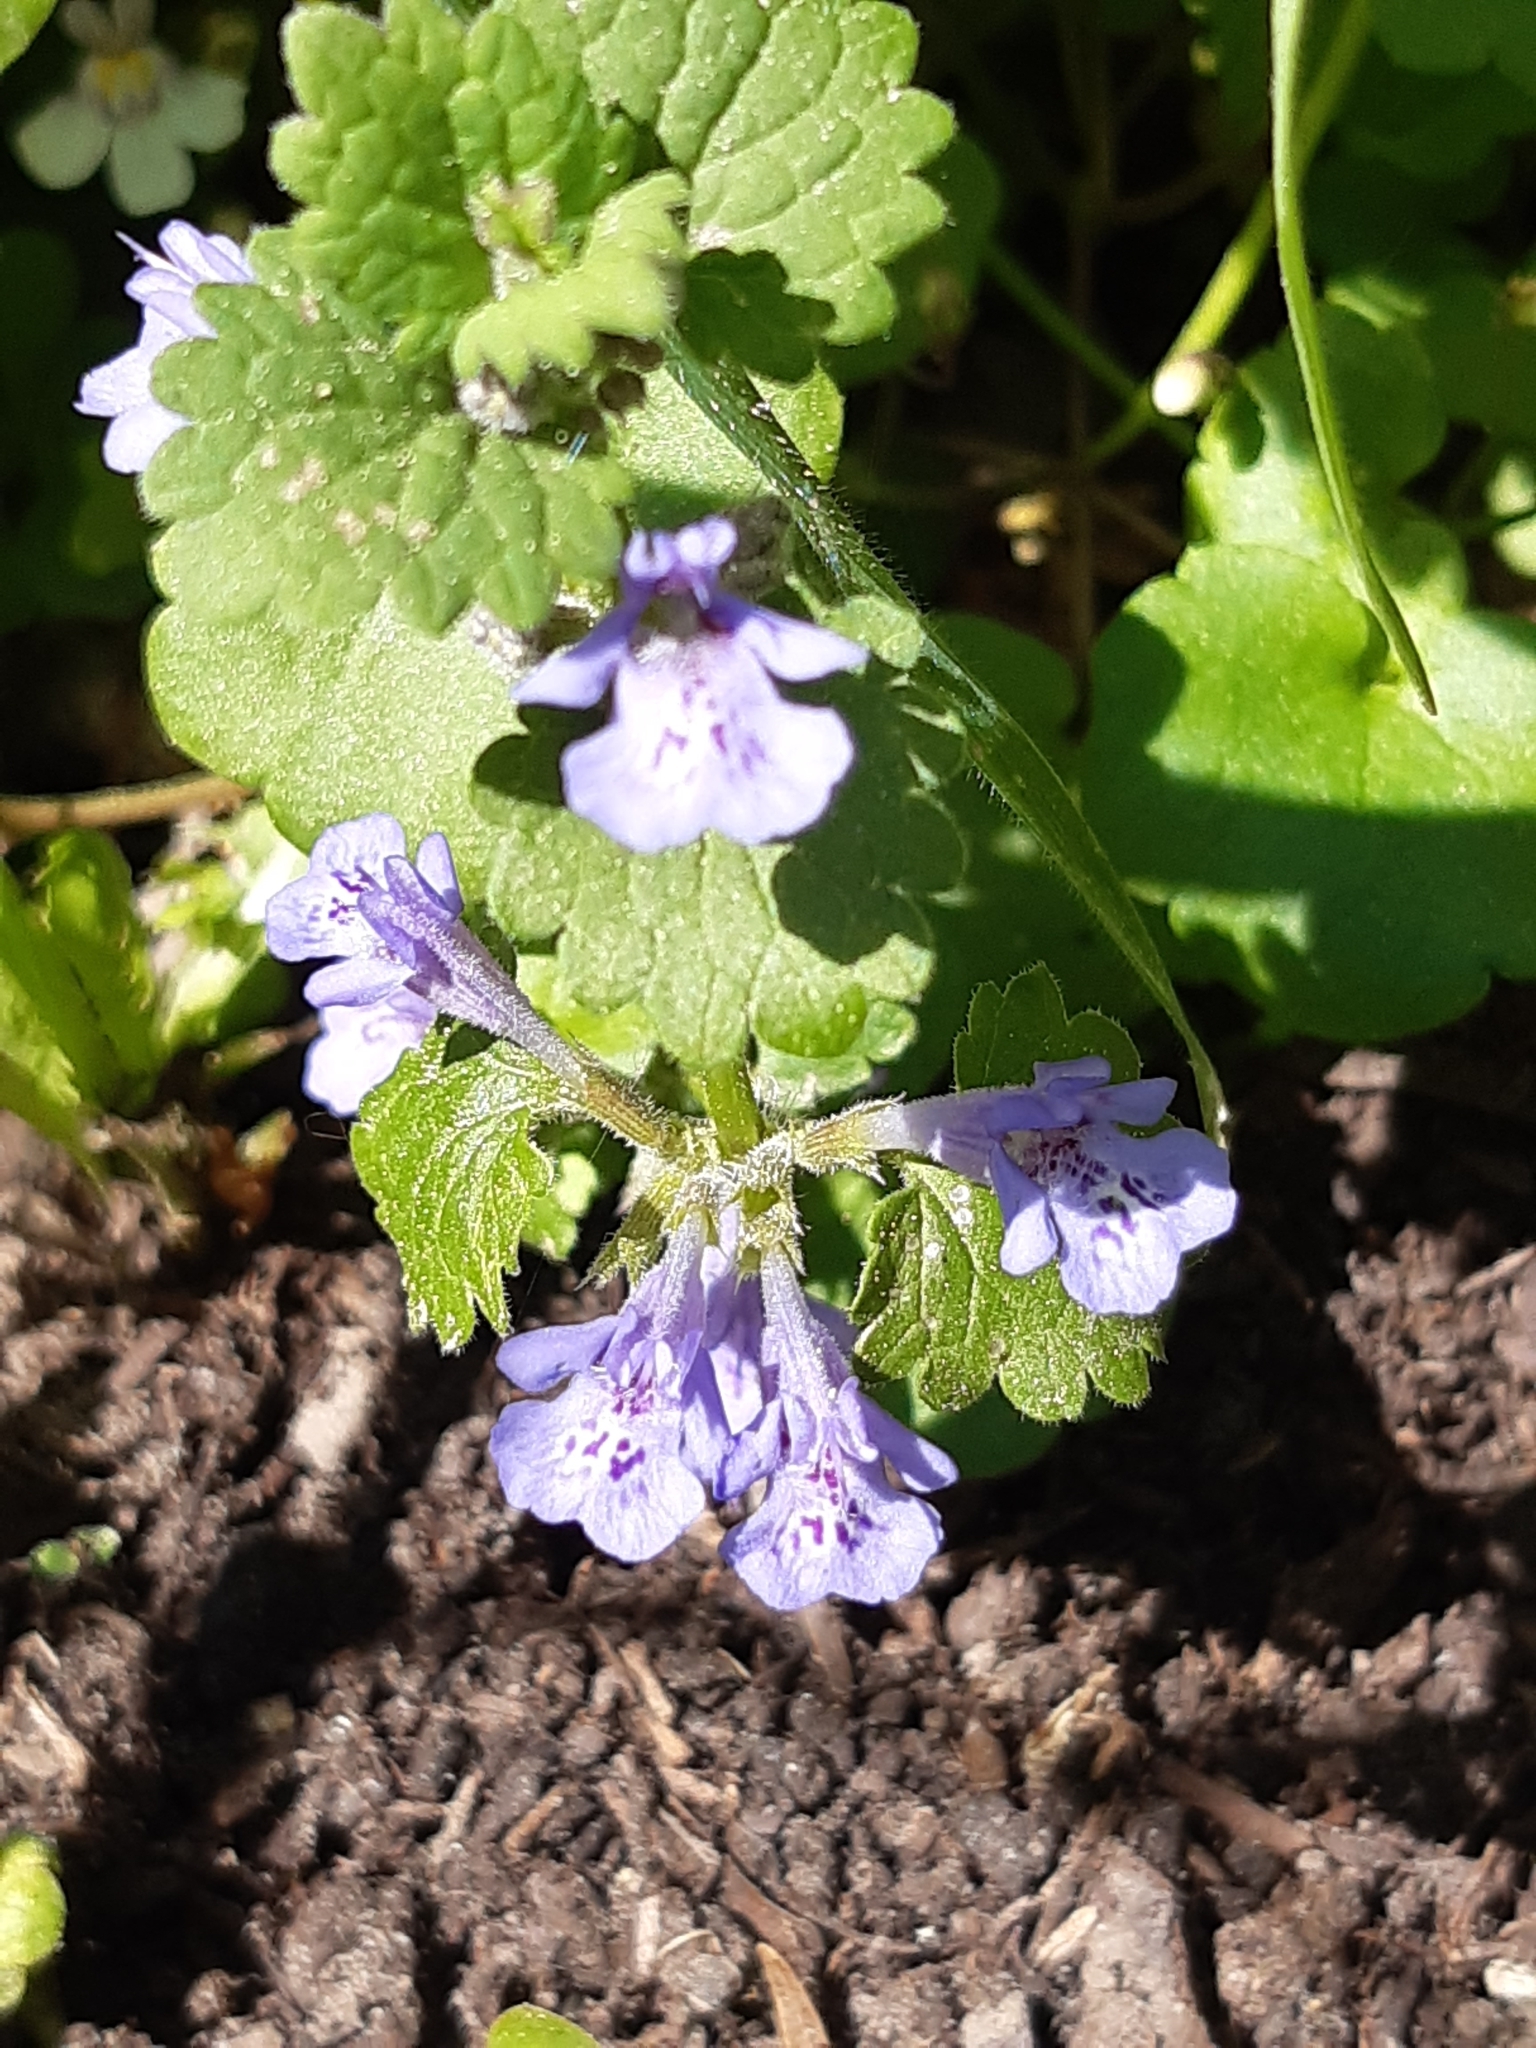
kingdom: Plantae
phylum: Tracheophyta
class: Magnoliopsida
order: Lamiales
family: Lamiaceae
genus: Glechoma
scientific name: Glechoma hederacea
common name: Ground ivy
